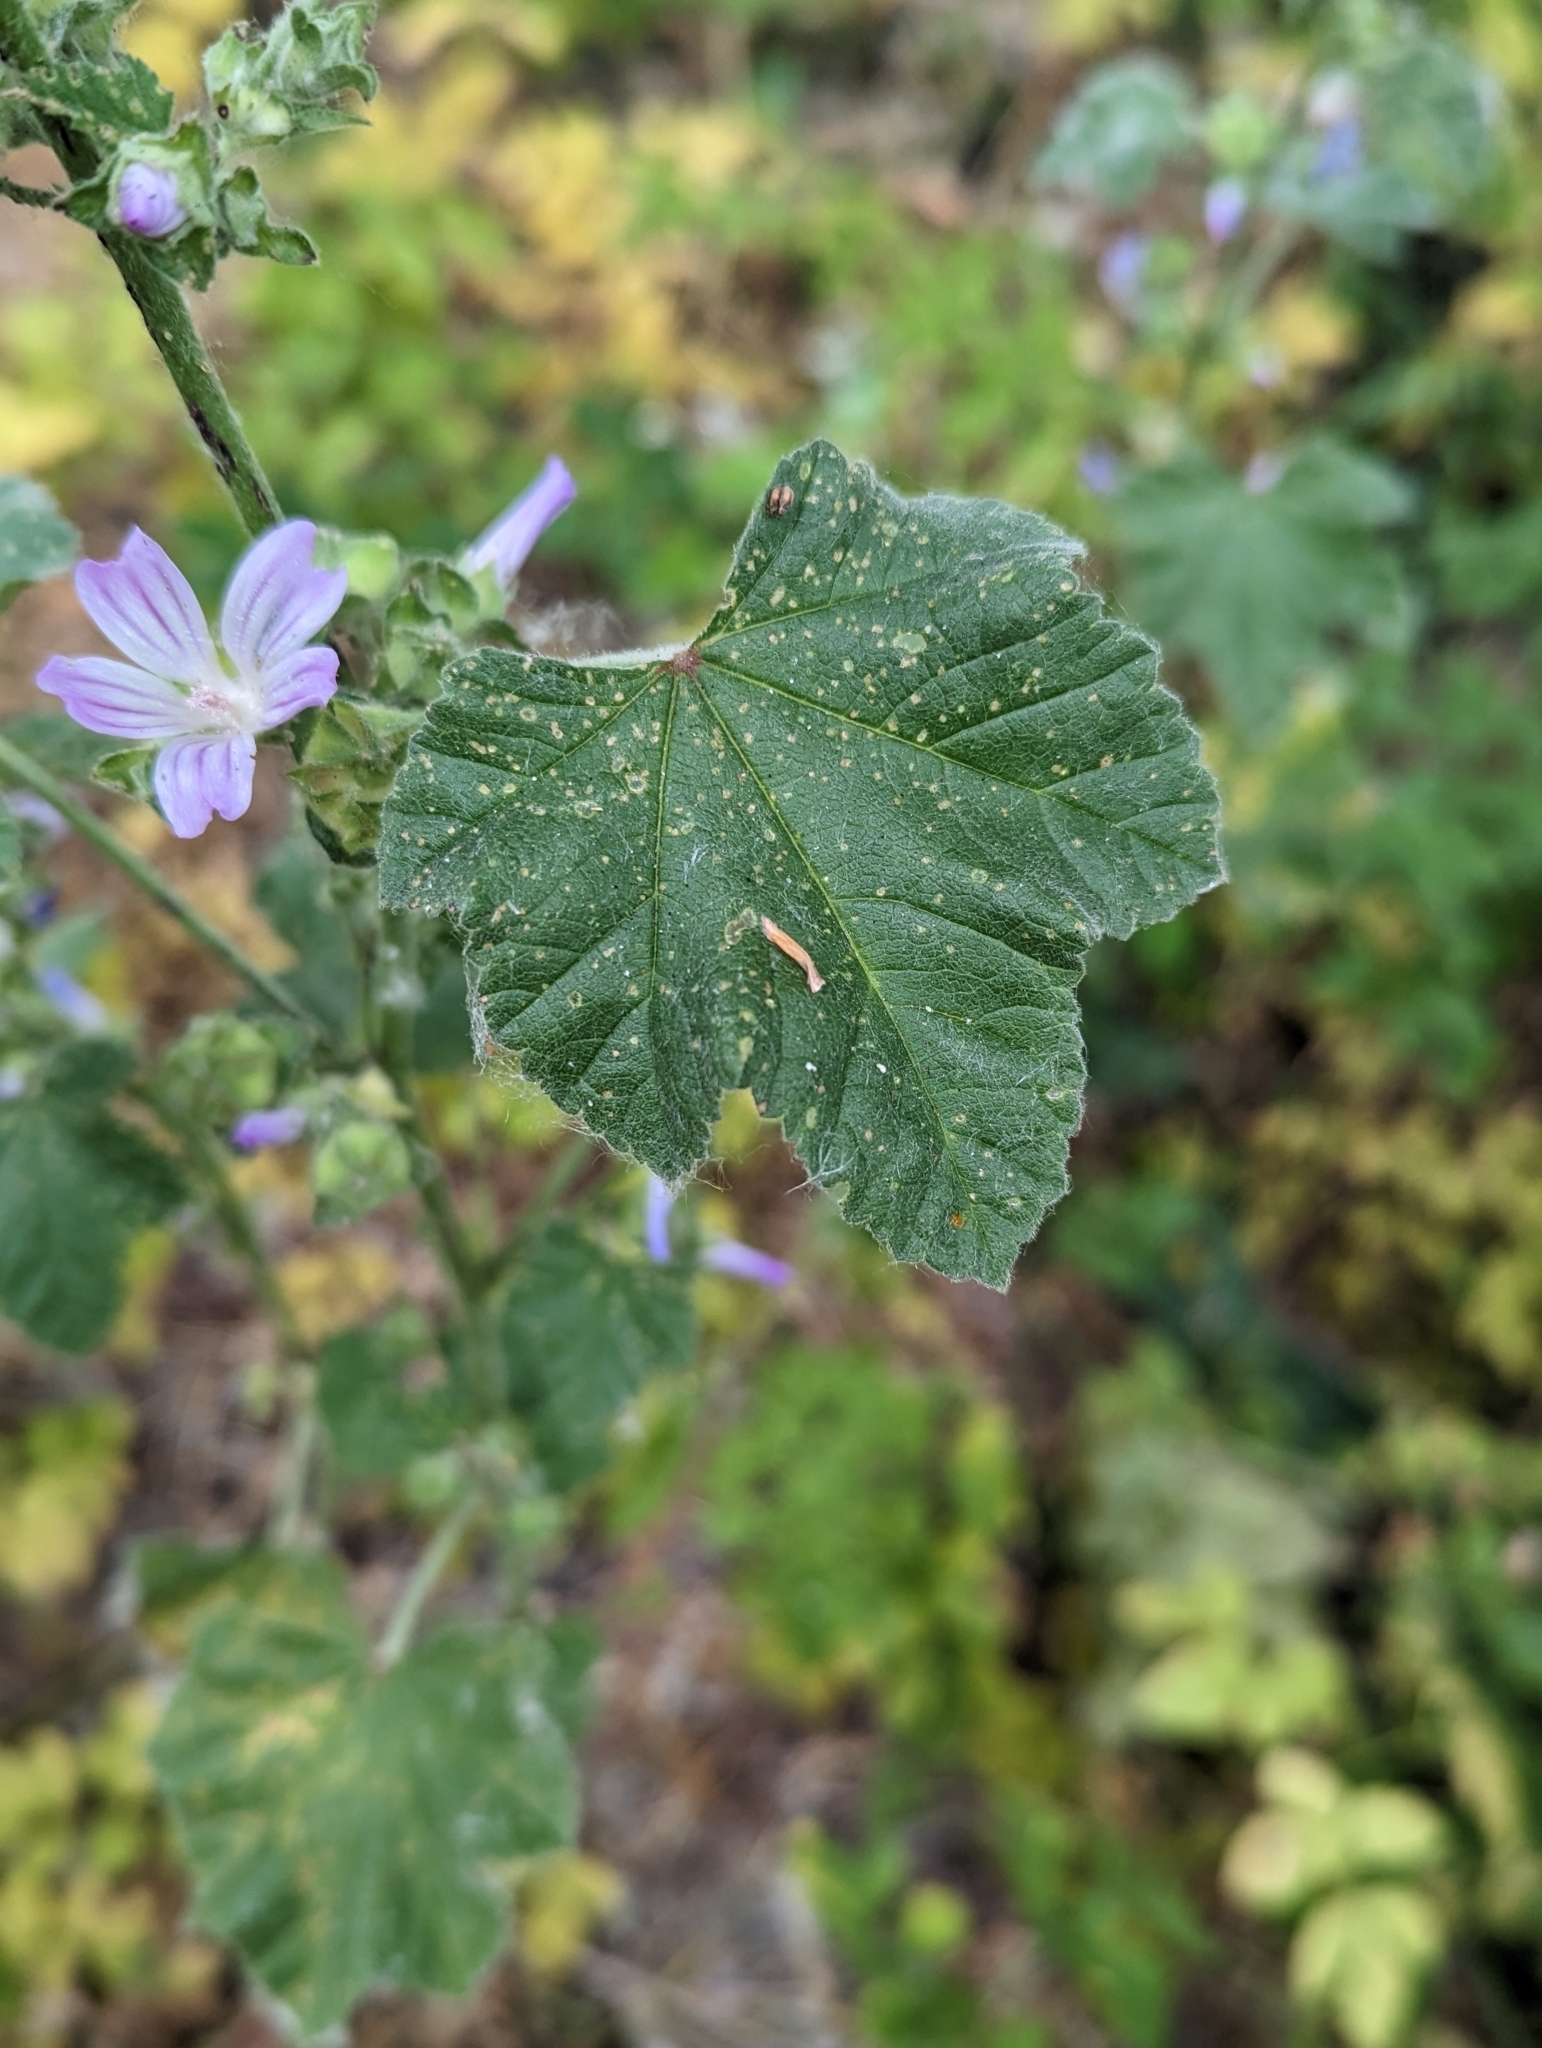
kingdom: Plantae
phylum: Tracheophyta
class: Magnoliopsida
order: Malvales
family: Malvaceae
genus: Malva
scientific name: Malva multiflora
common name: Cheeseweed
